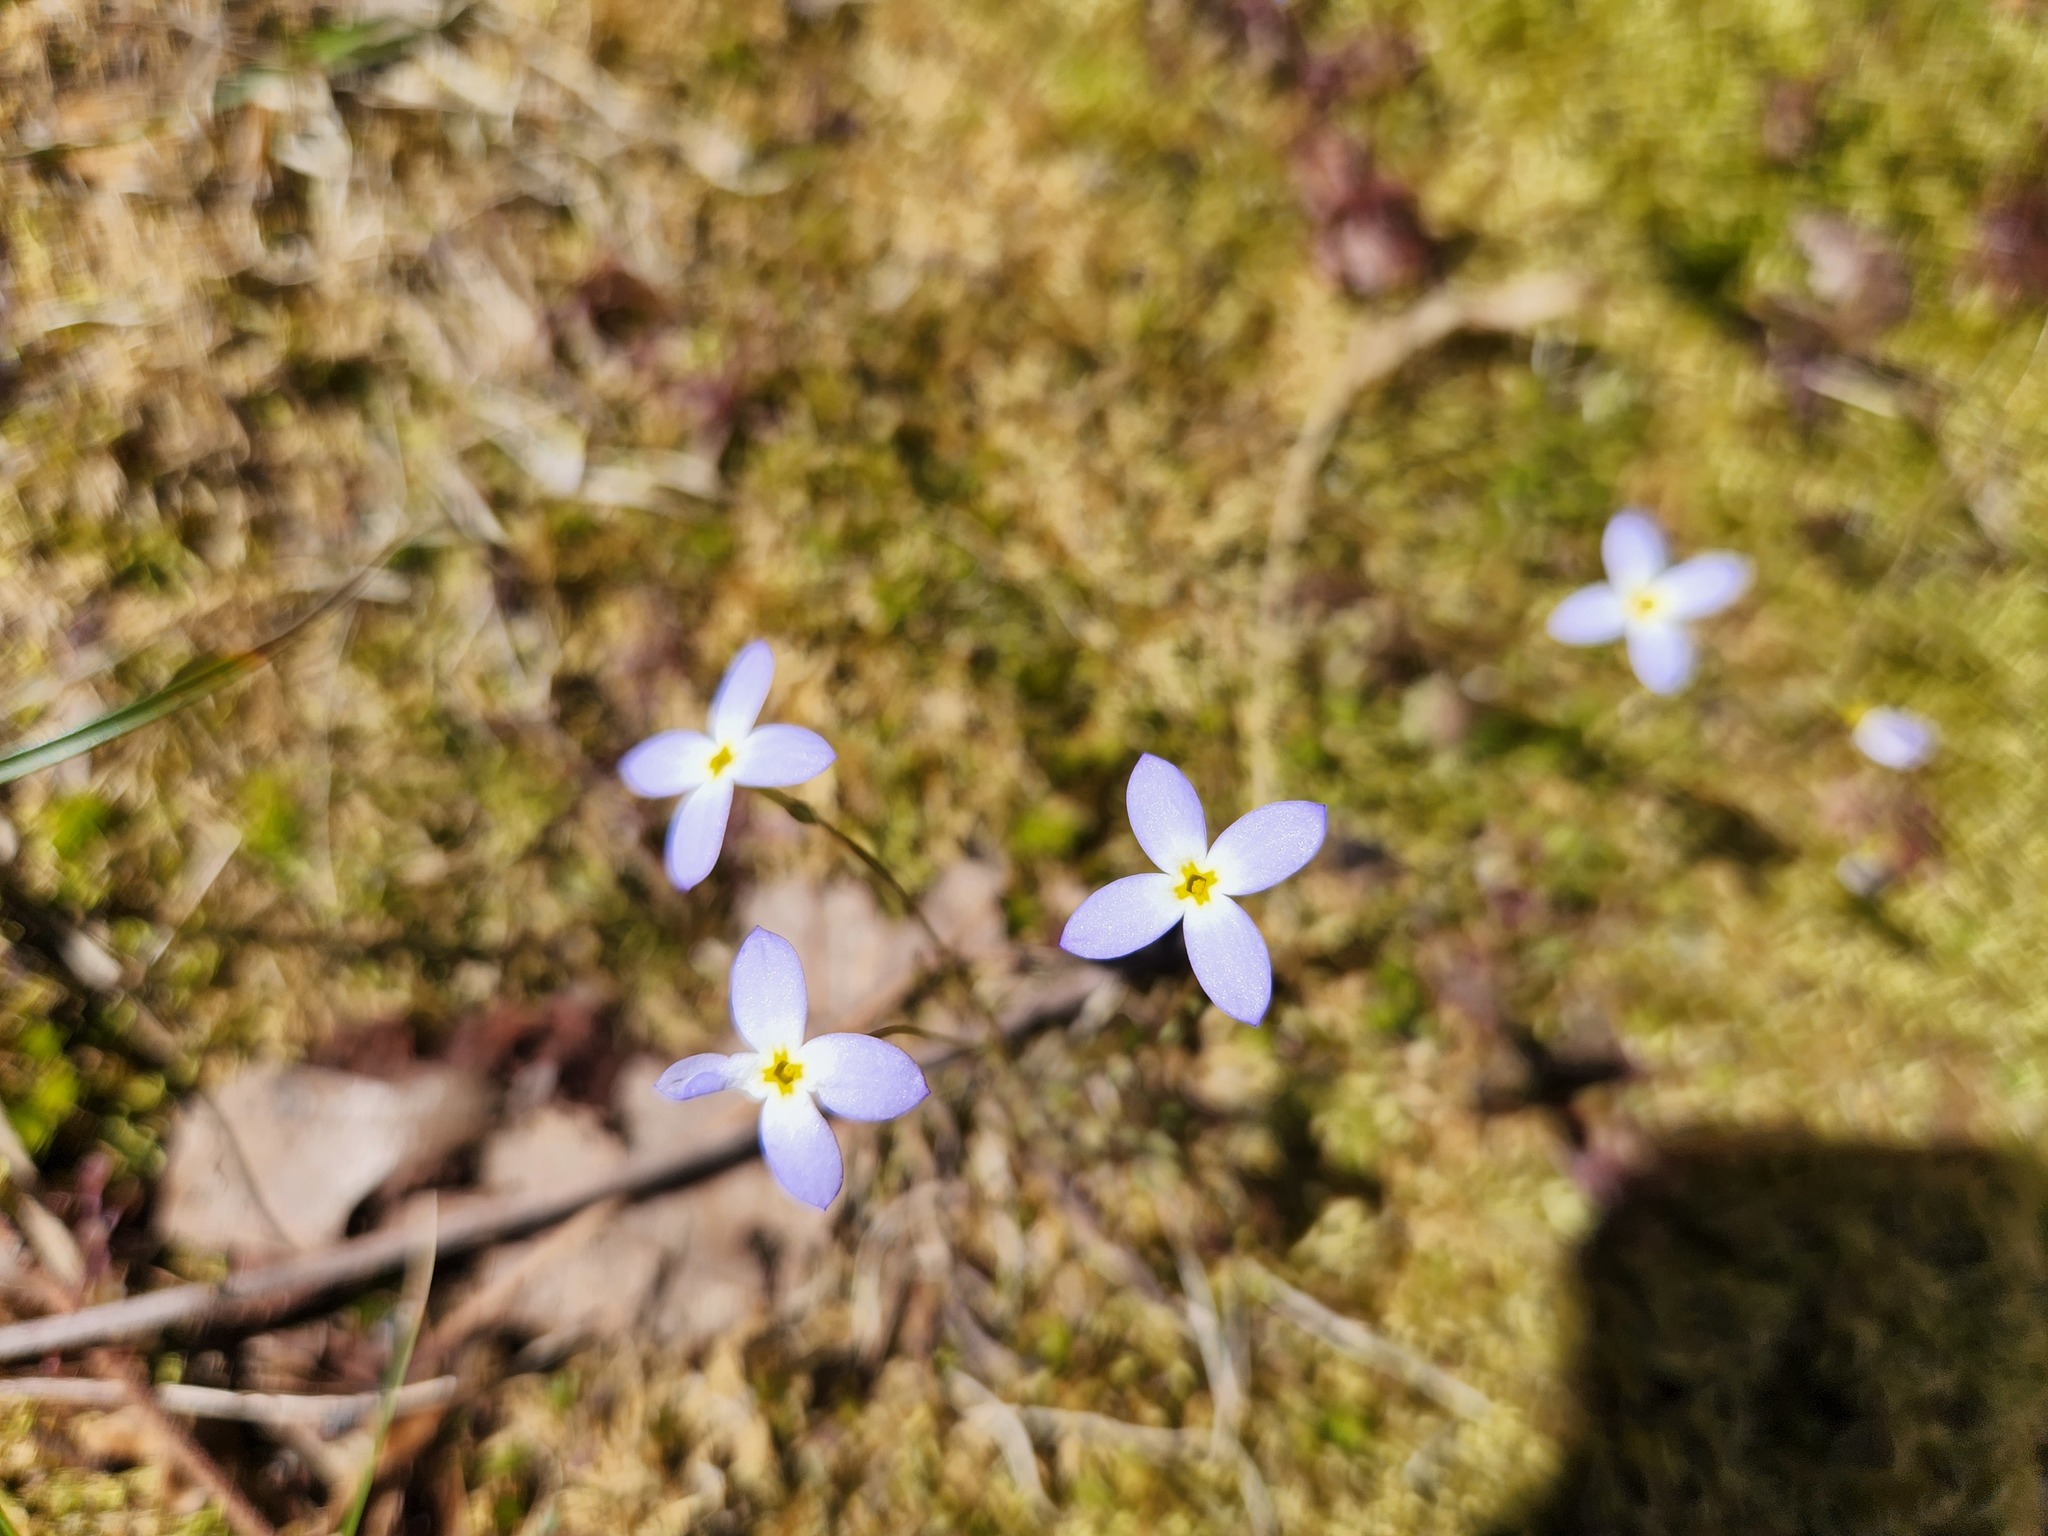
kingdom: Plantae
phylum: Tracheophyta
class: Magnoliopsida
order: Gentianales
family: Rubiaceae
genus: Houstonia
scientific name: Houstonia caerulea
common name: Bluets
